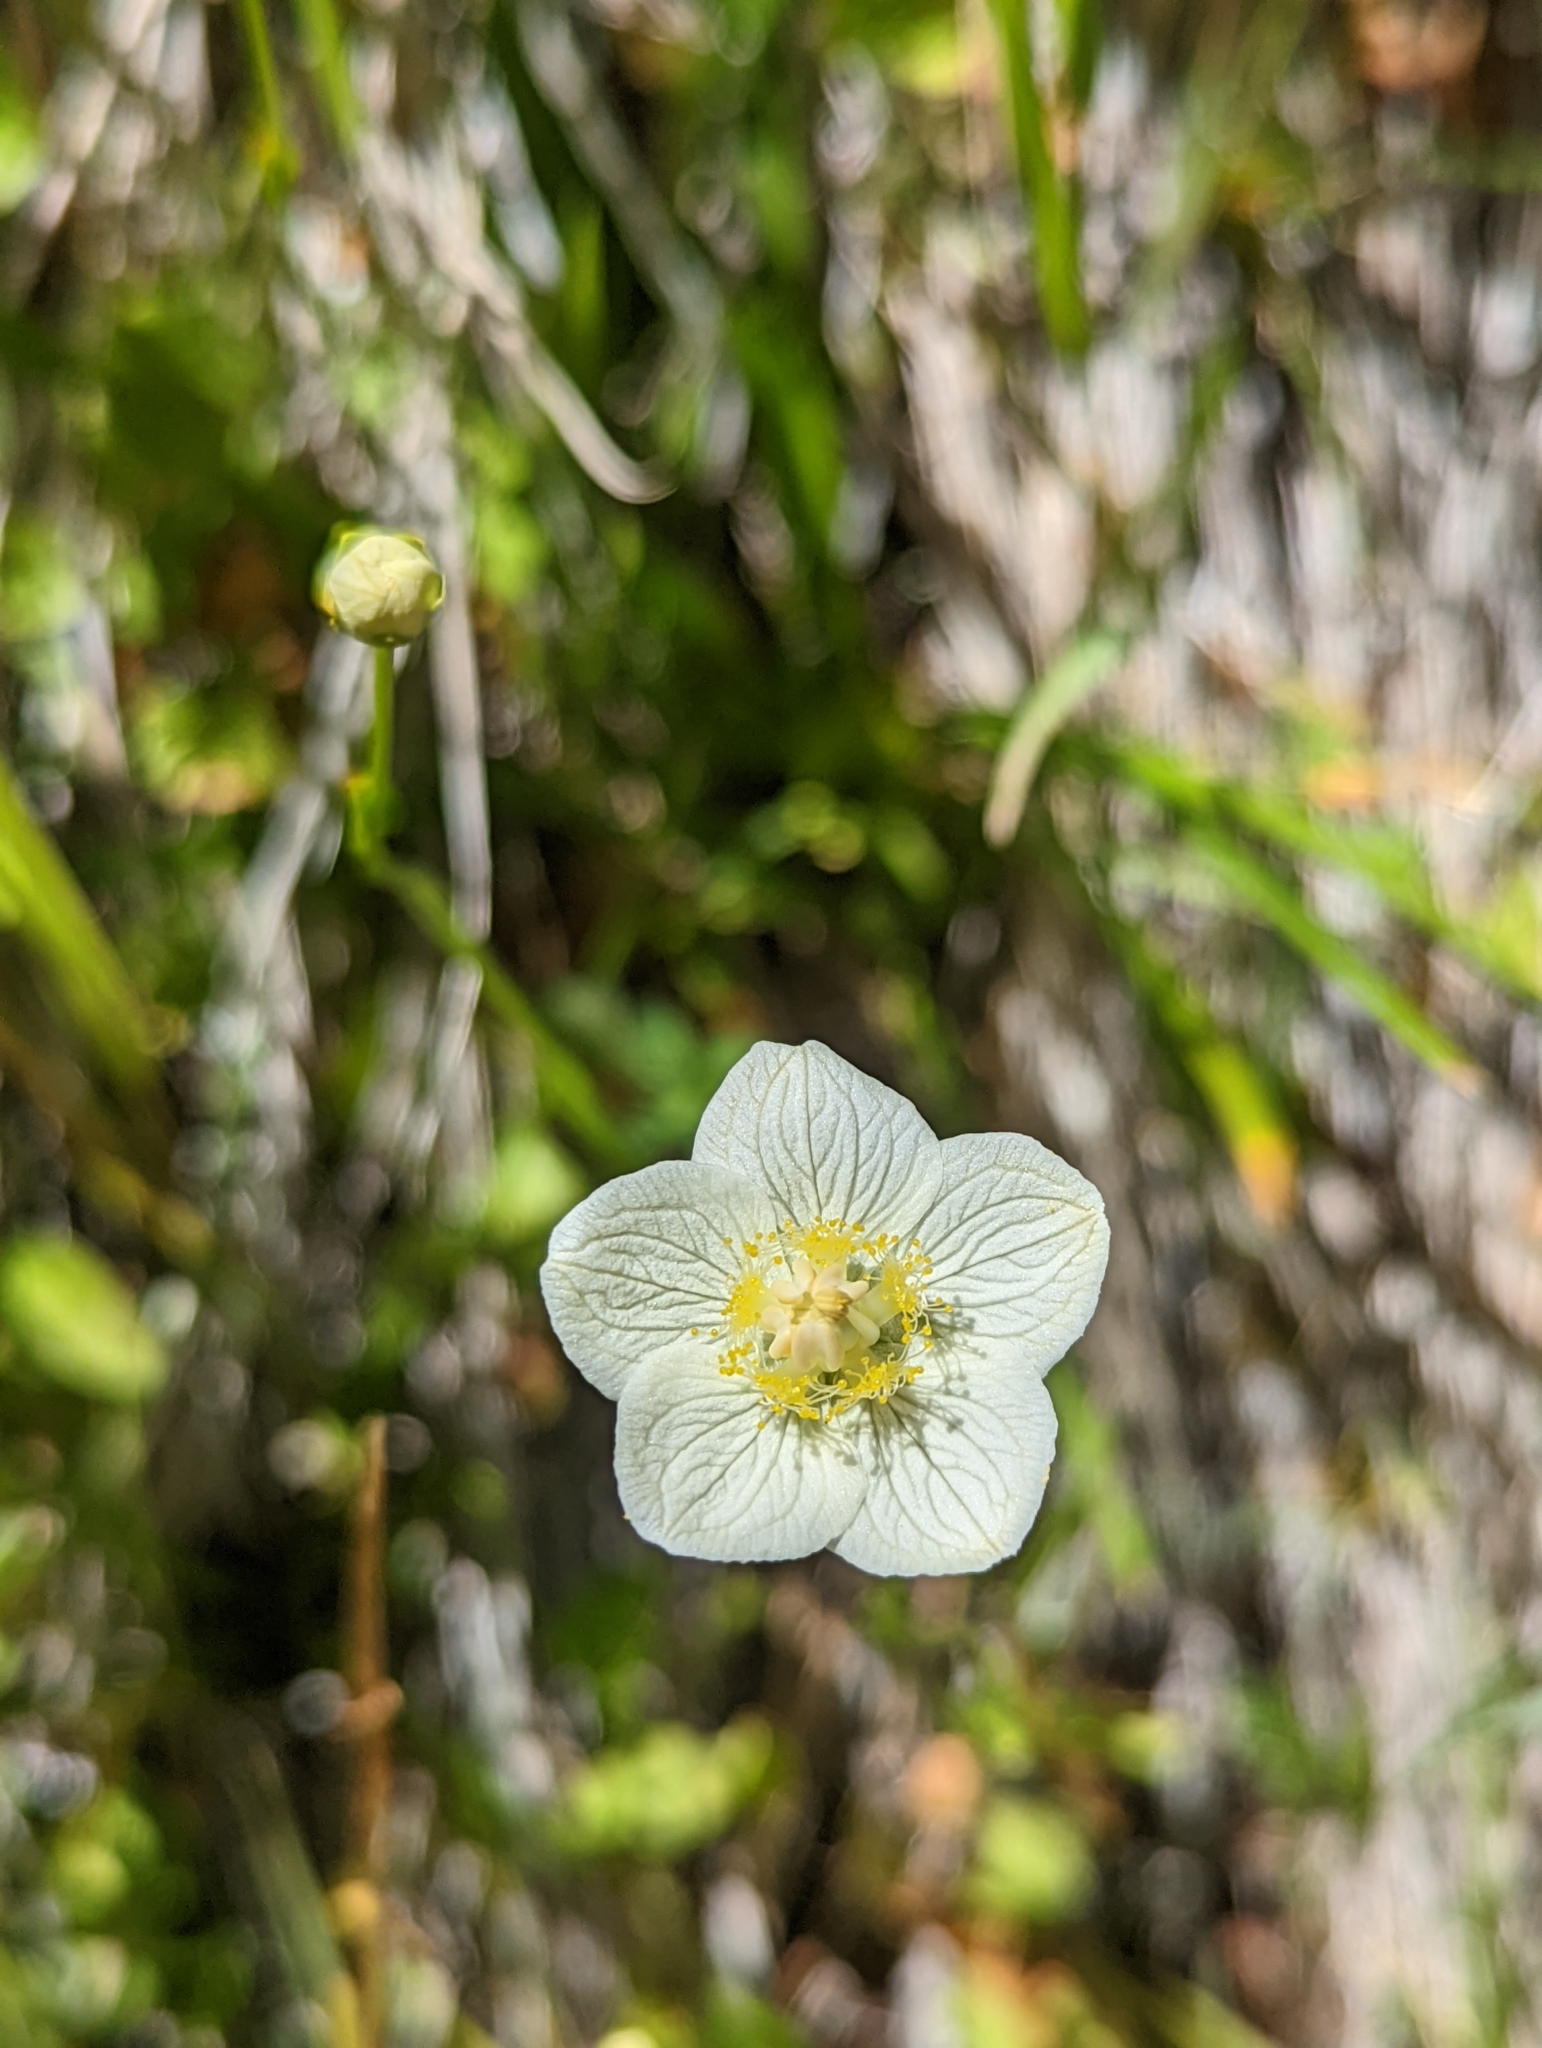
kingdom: Plantae
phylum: Tracheophyta
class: Magnoliopsida
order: Celastrales
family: Parnassiaceae
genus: Parnassia
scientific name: Parnassia palustris
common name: Grass-of-parnassus
